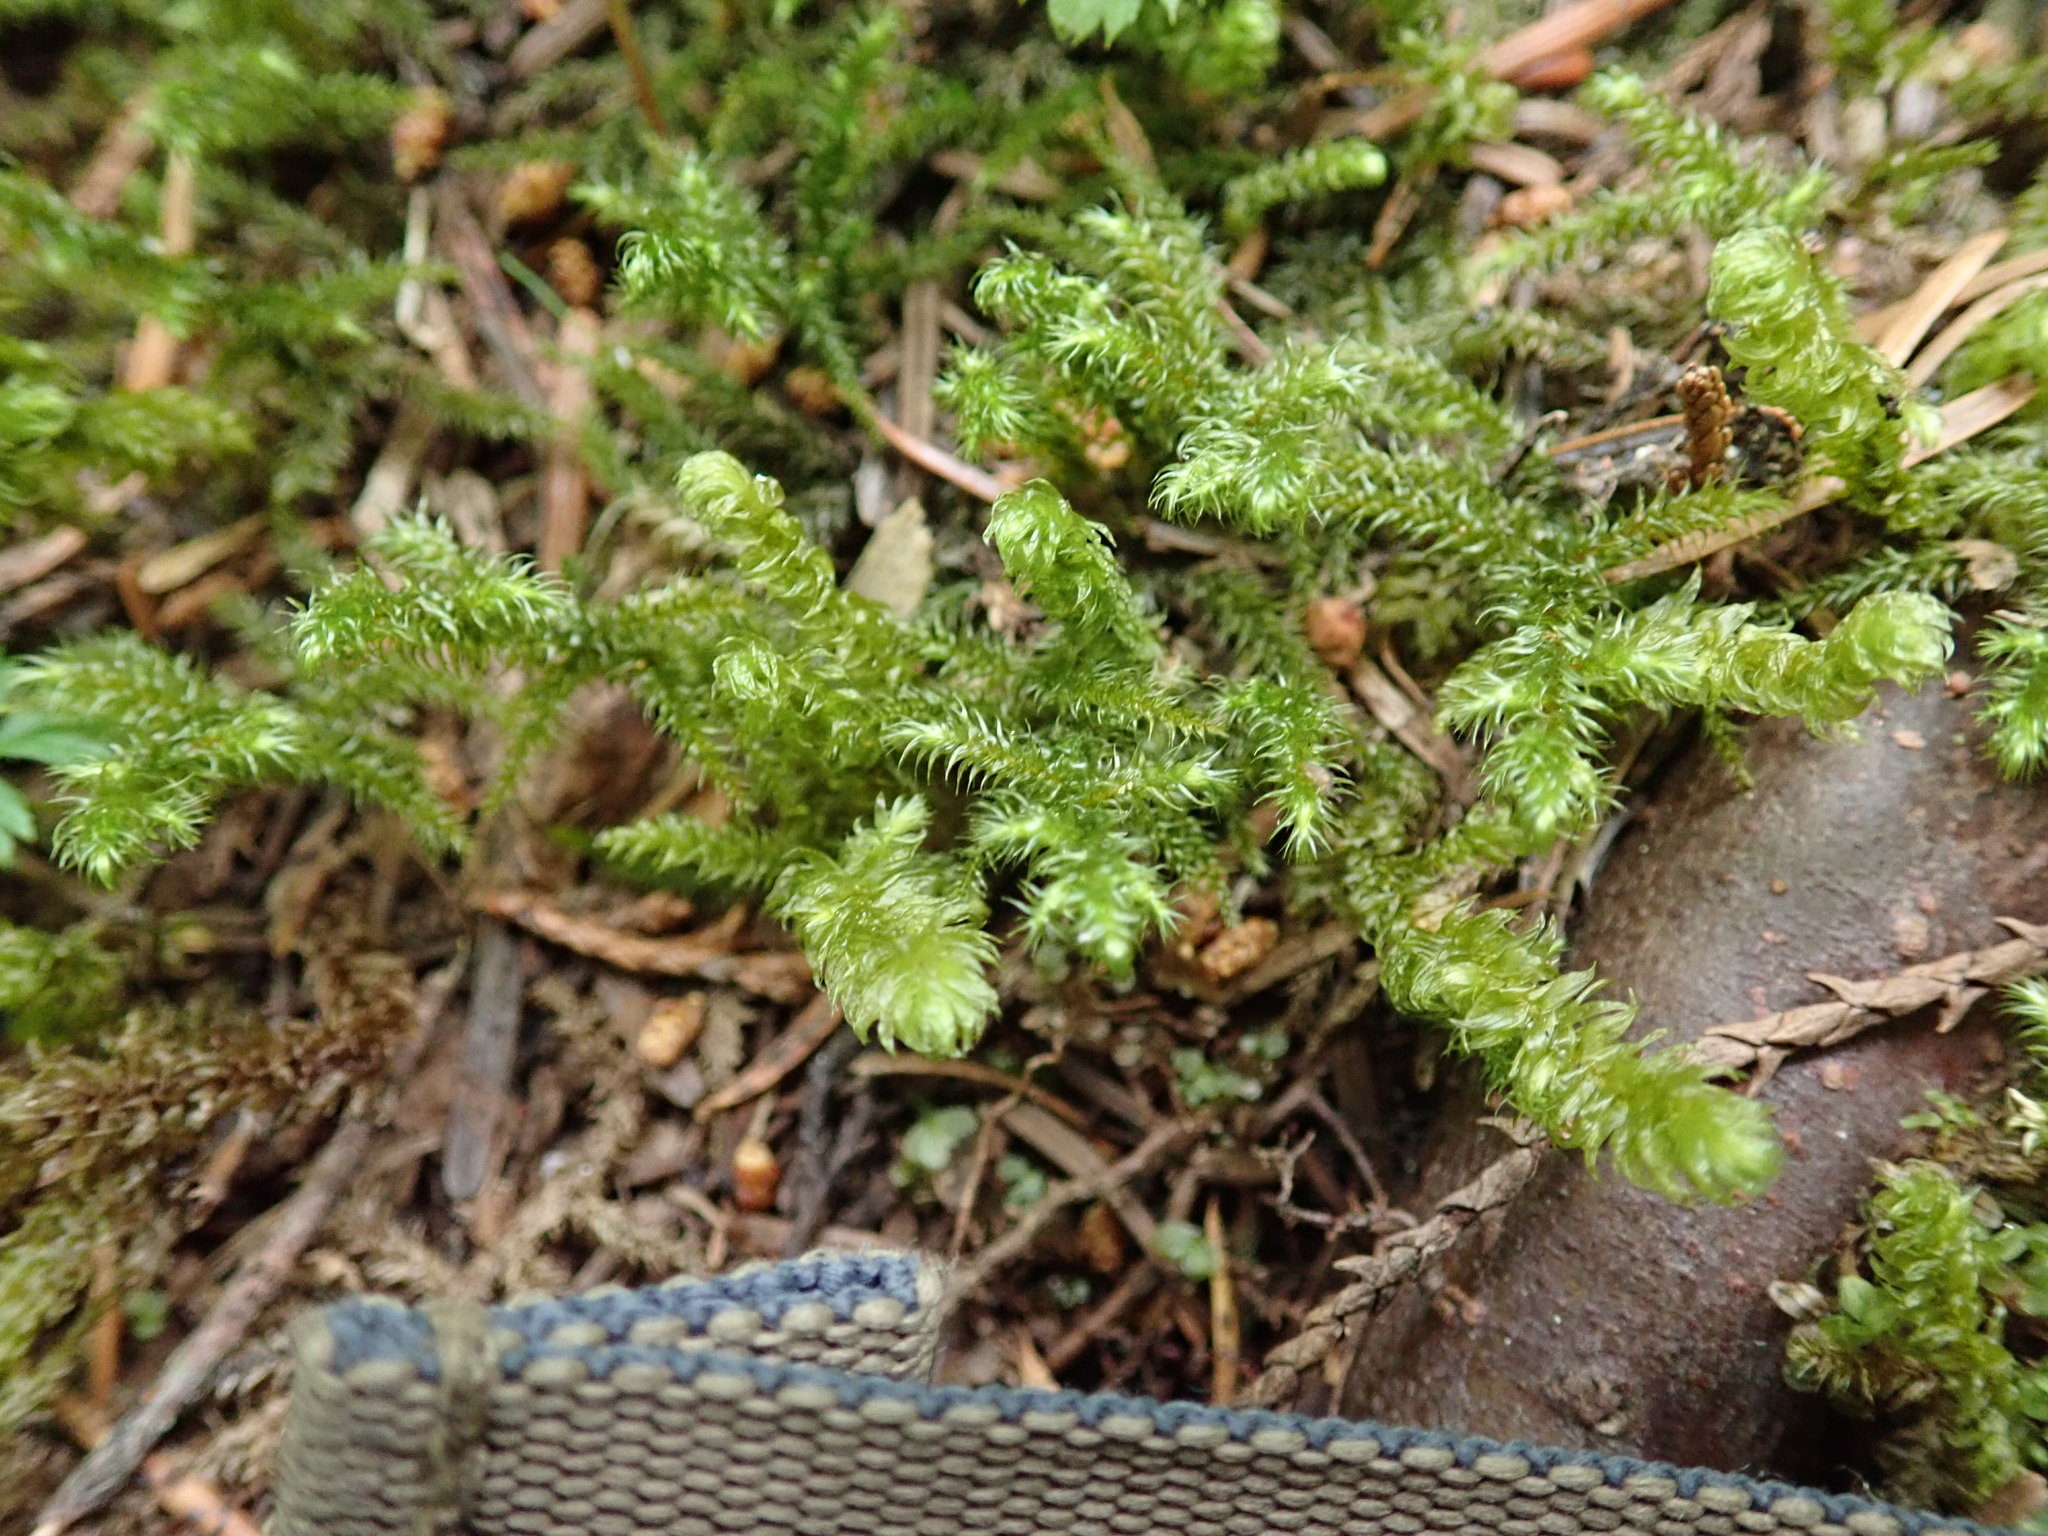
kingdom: Plantae
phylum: Bryophyta
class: Bryopsida
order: Hypnales
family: Hylocomiaceae
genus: Rhytidiopsis
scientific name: Rhytidiopsis robusta
